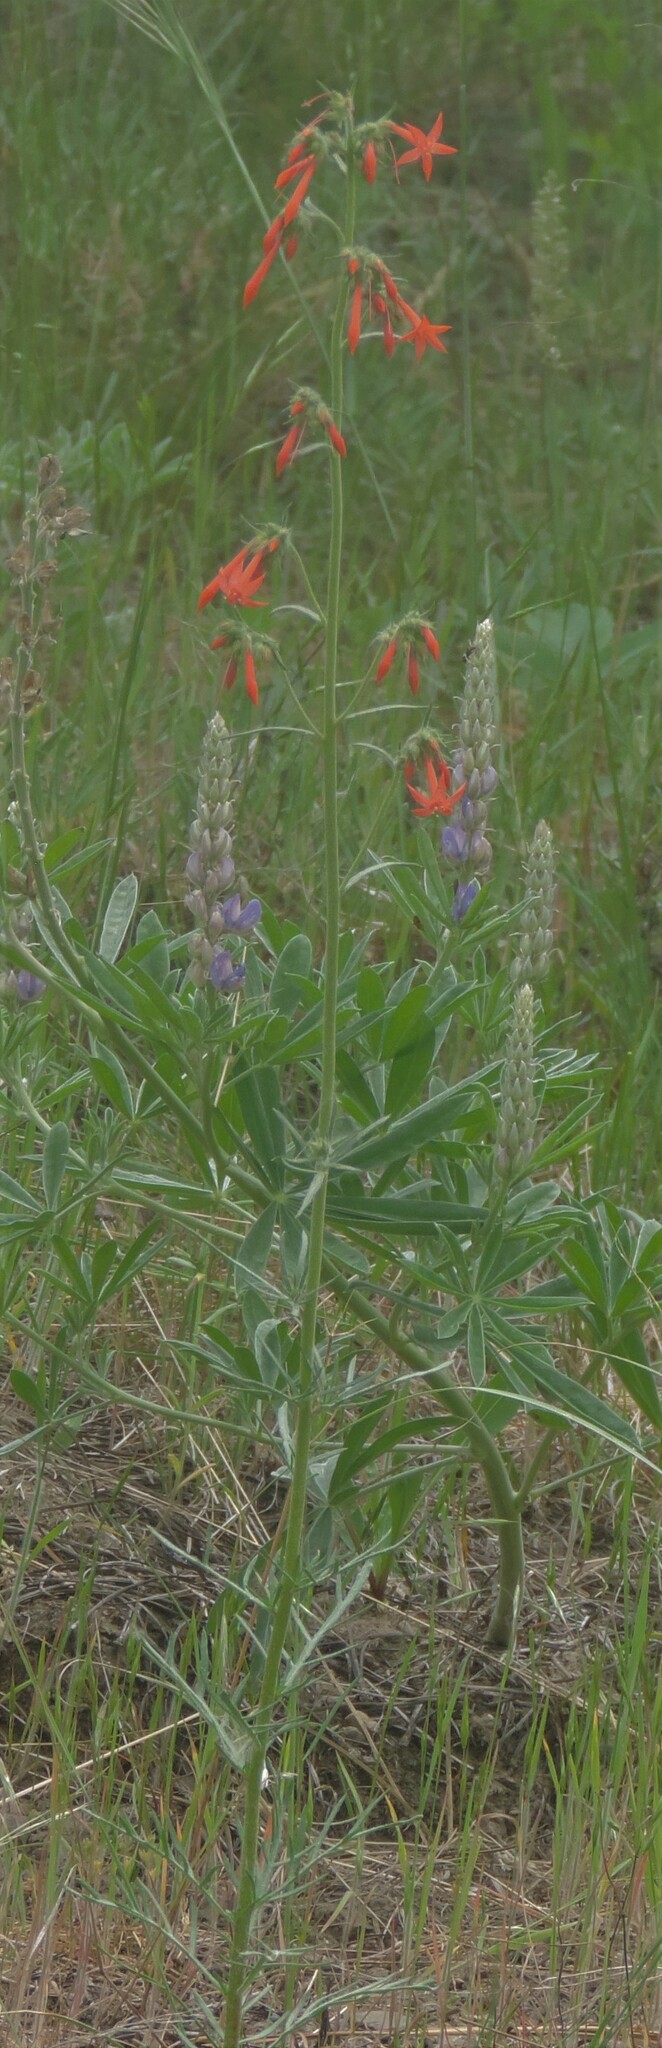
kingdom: Plantae
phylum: Tracheophyta
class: Magnoliopsida
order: Ericales
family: Polemoniaceae
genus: Ipomopsis
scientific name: Ipomopsis aggregata
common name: Scarlet gilia
